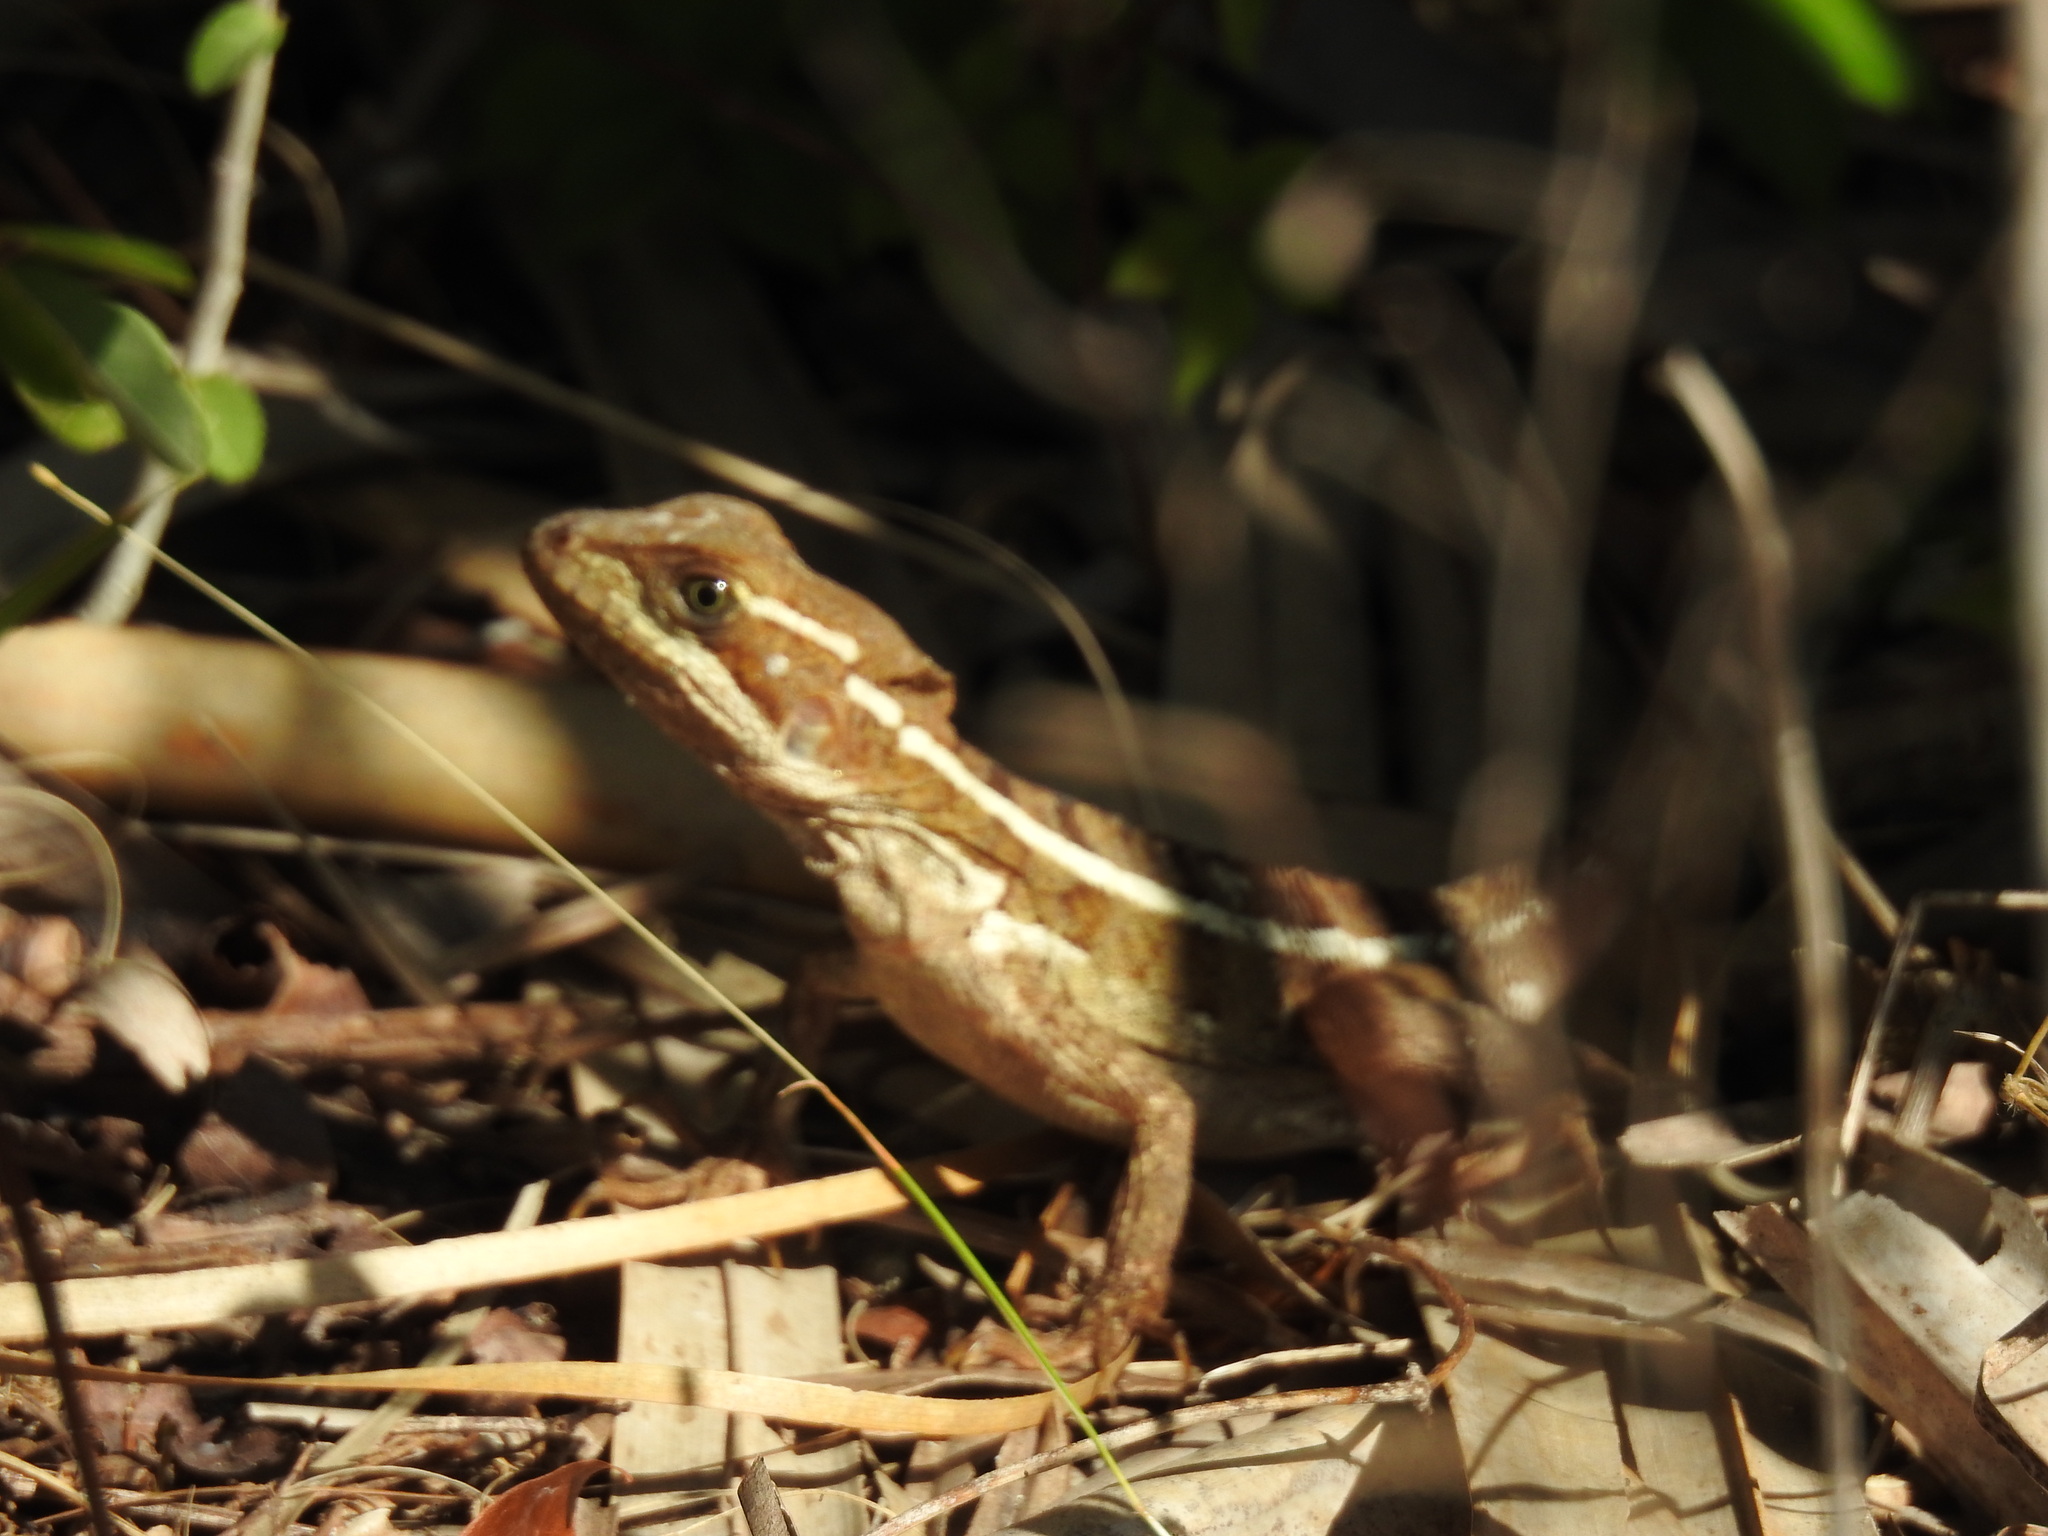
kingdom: Animalia
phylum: Chordata
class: Squamata
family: Corytophanidae
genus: Basiliscus
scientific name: Basiliscus vittatus
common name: Brown basilisk
